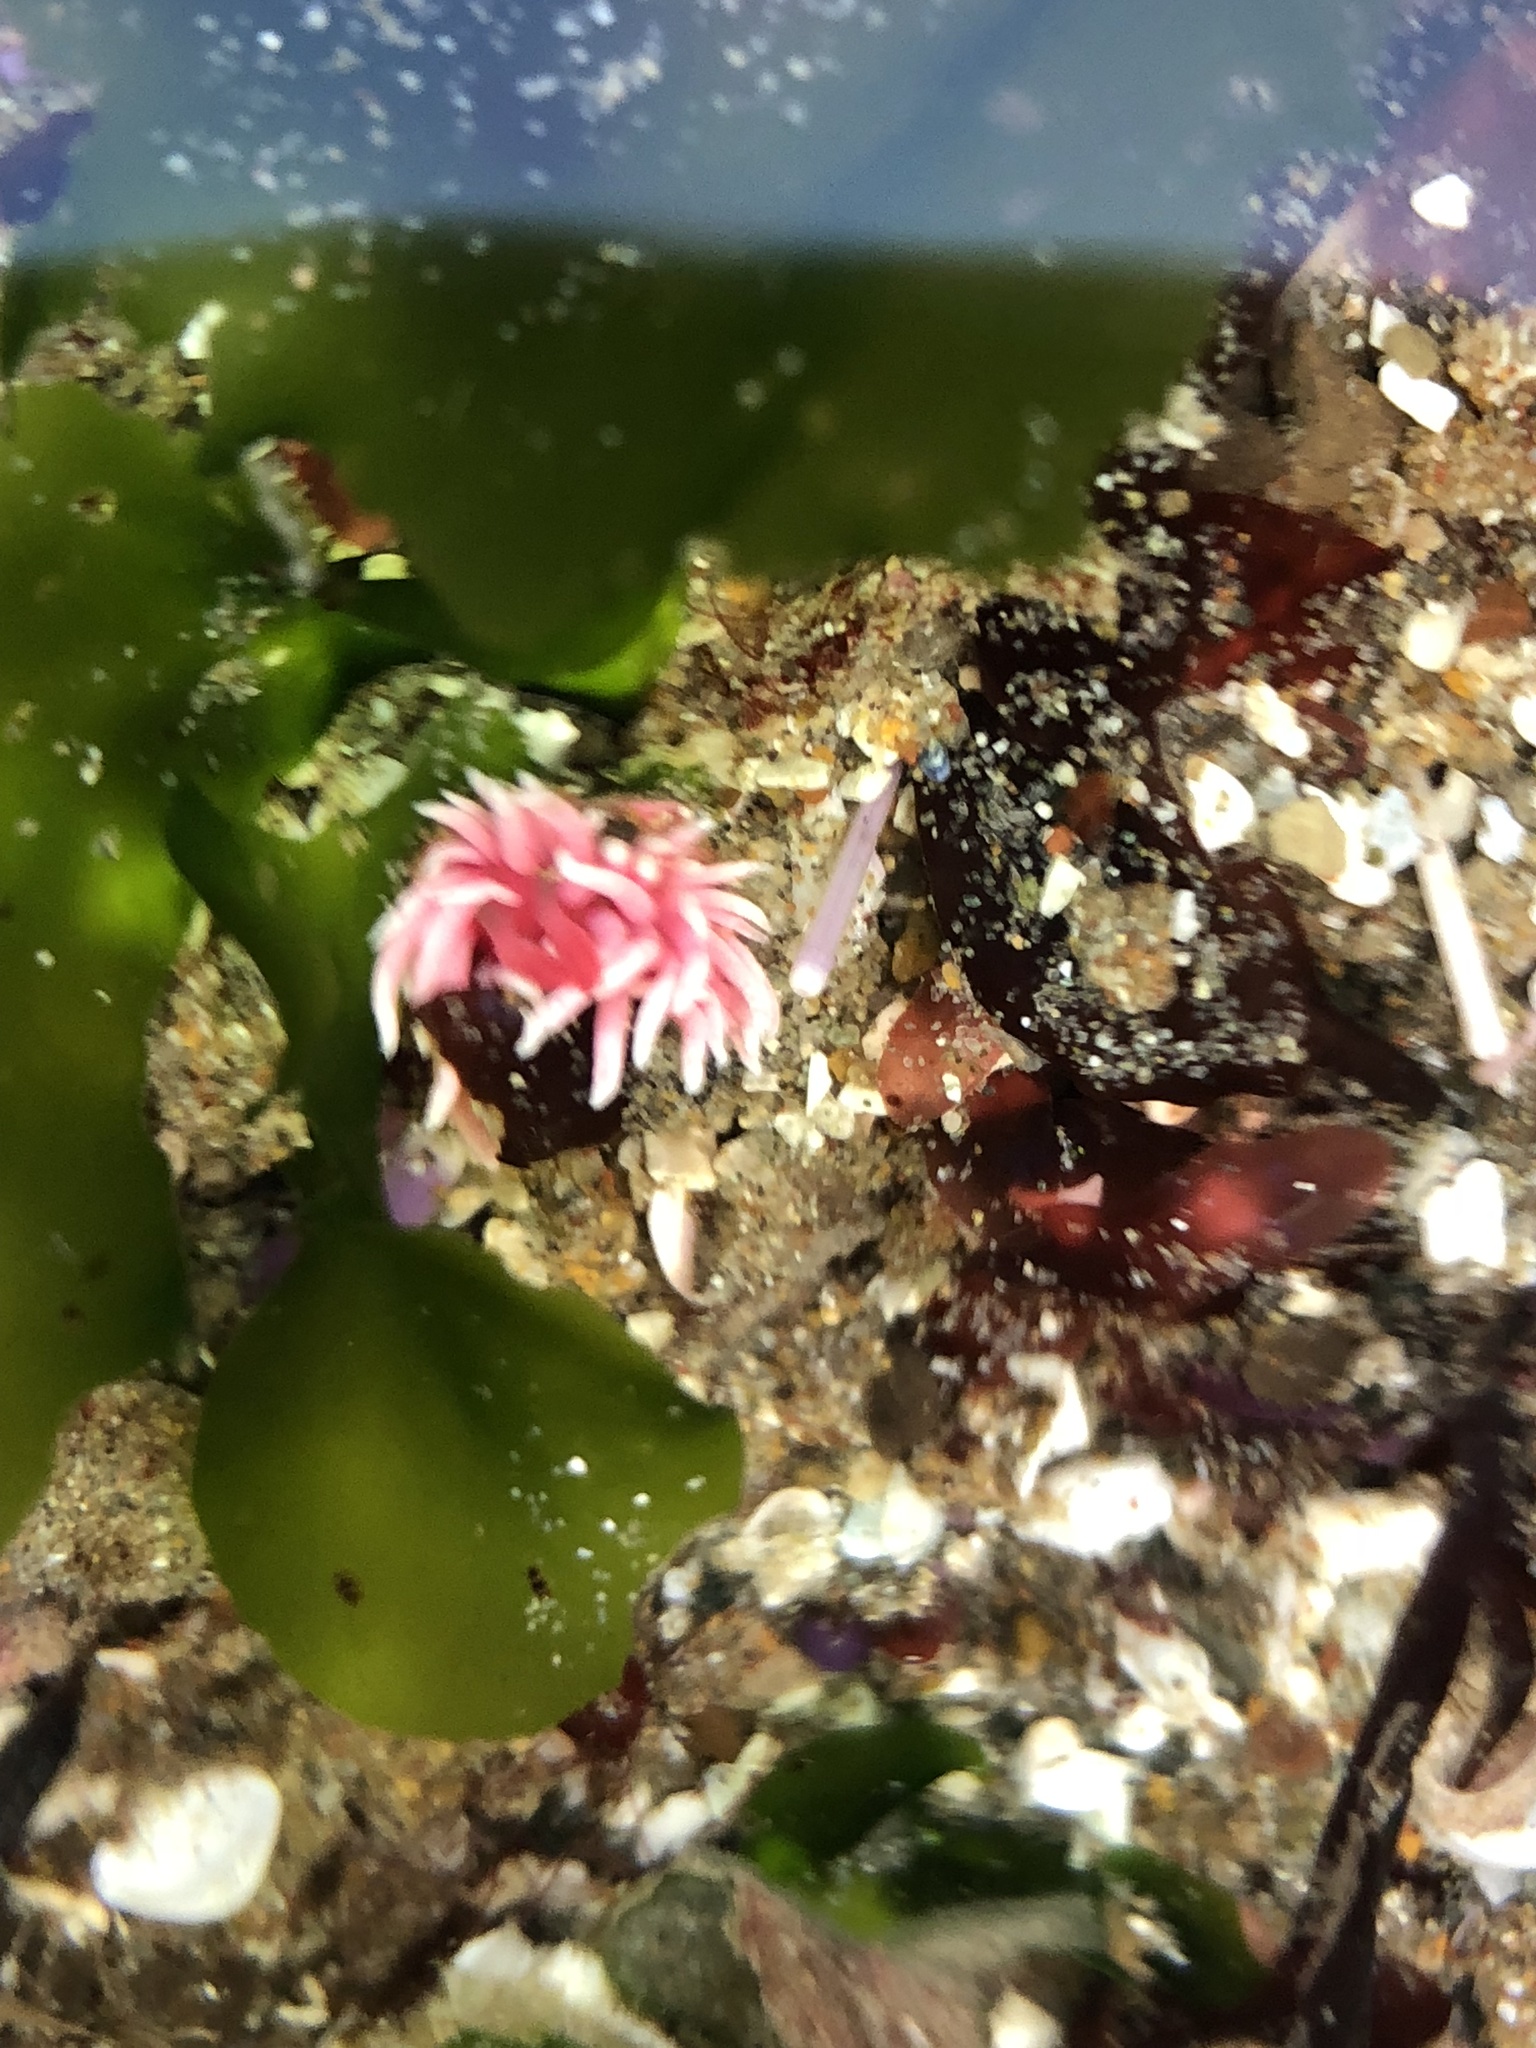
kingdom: Animalia
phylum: Mollusca
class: Gastropoda
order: Nudibranchia
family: Goniodorididae
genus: Okenia
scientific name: Okenia
